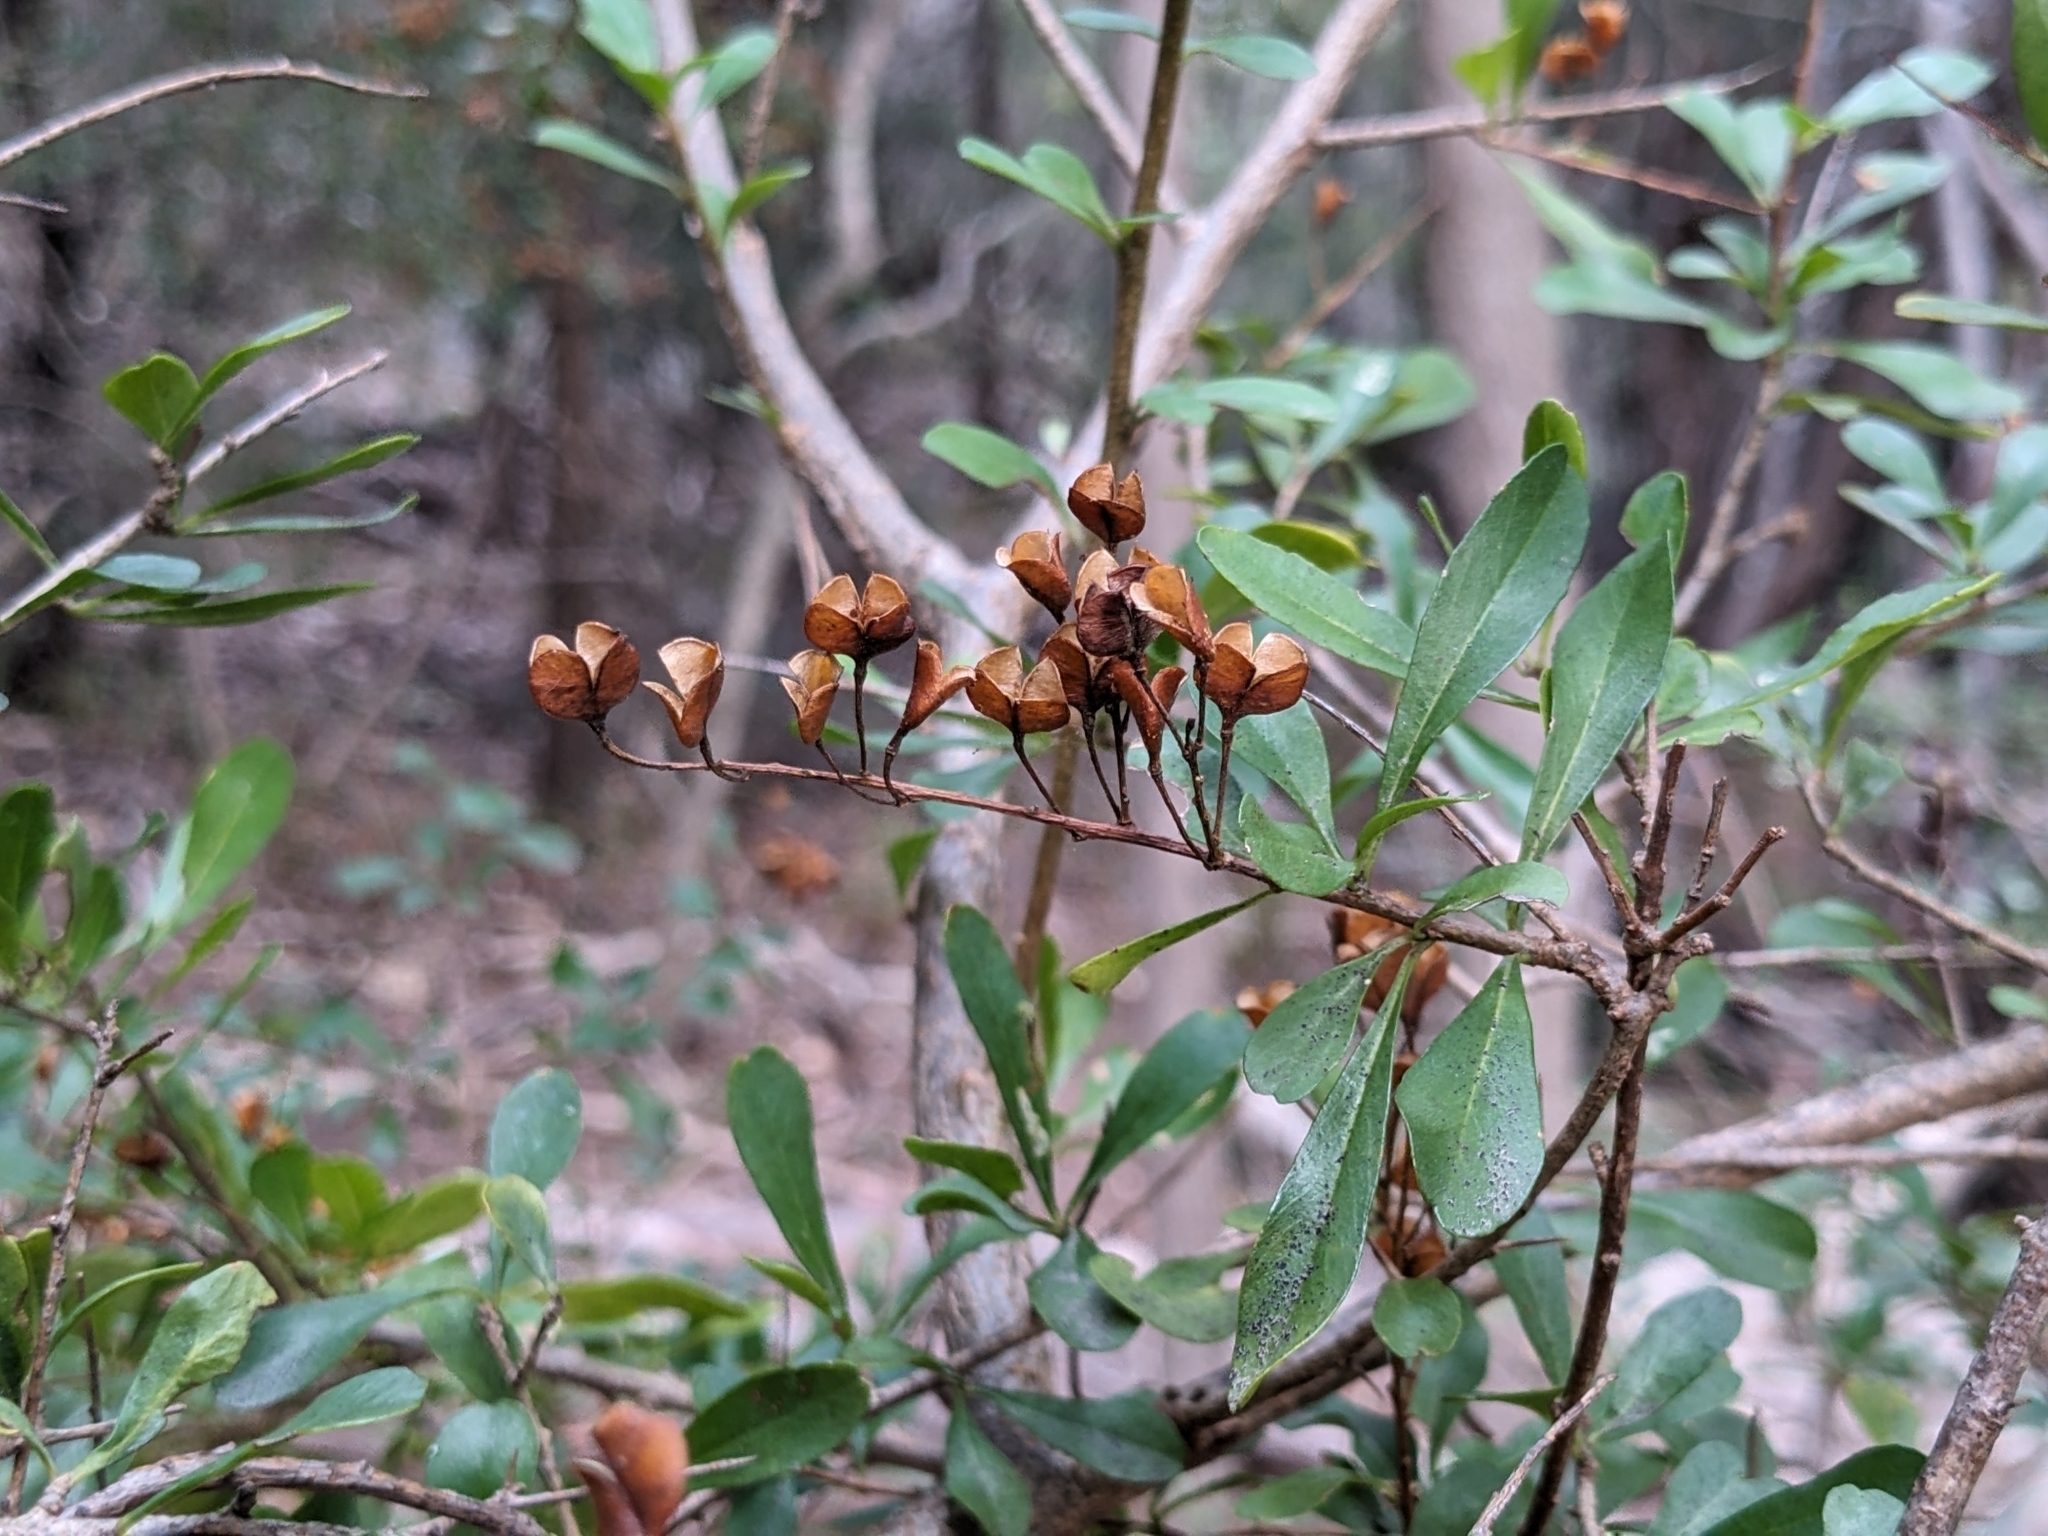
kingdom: Plantae
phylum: Tracheophyta
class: Magnoliopsida
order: Apiales
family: Pittosporaceae
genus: Bursaria
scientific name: Bursaria spinosa
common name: Australian blackthorn
